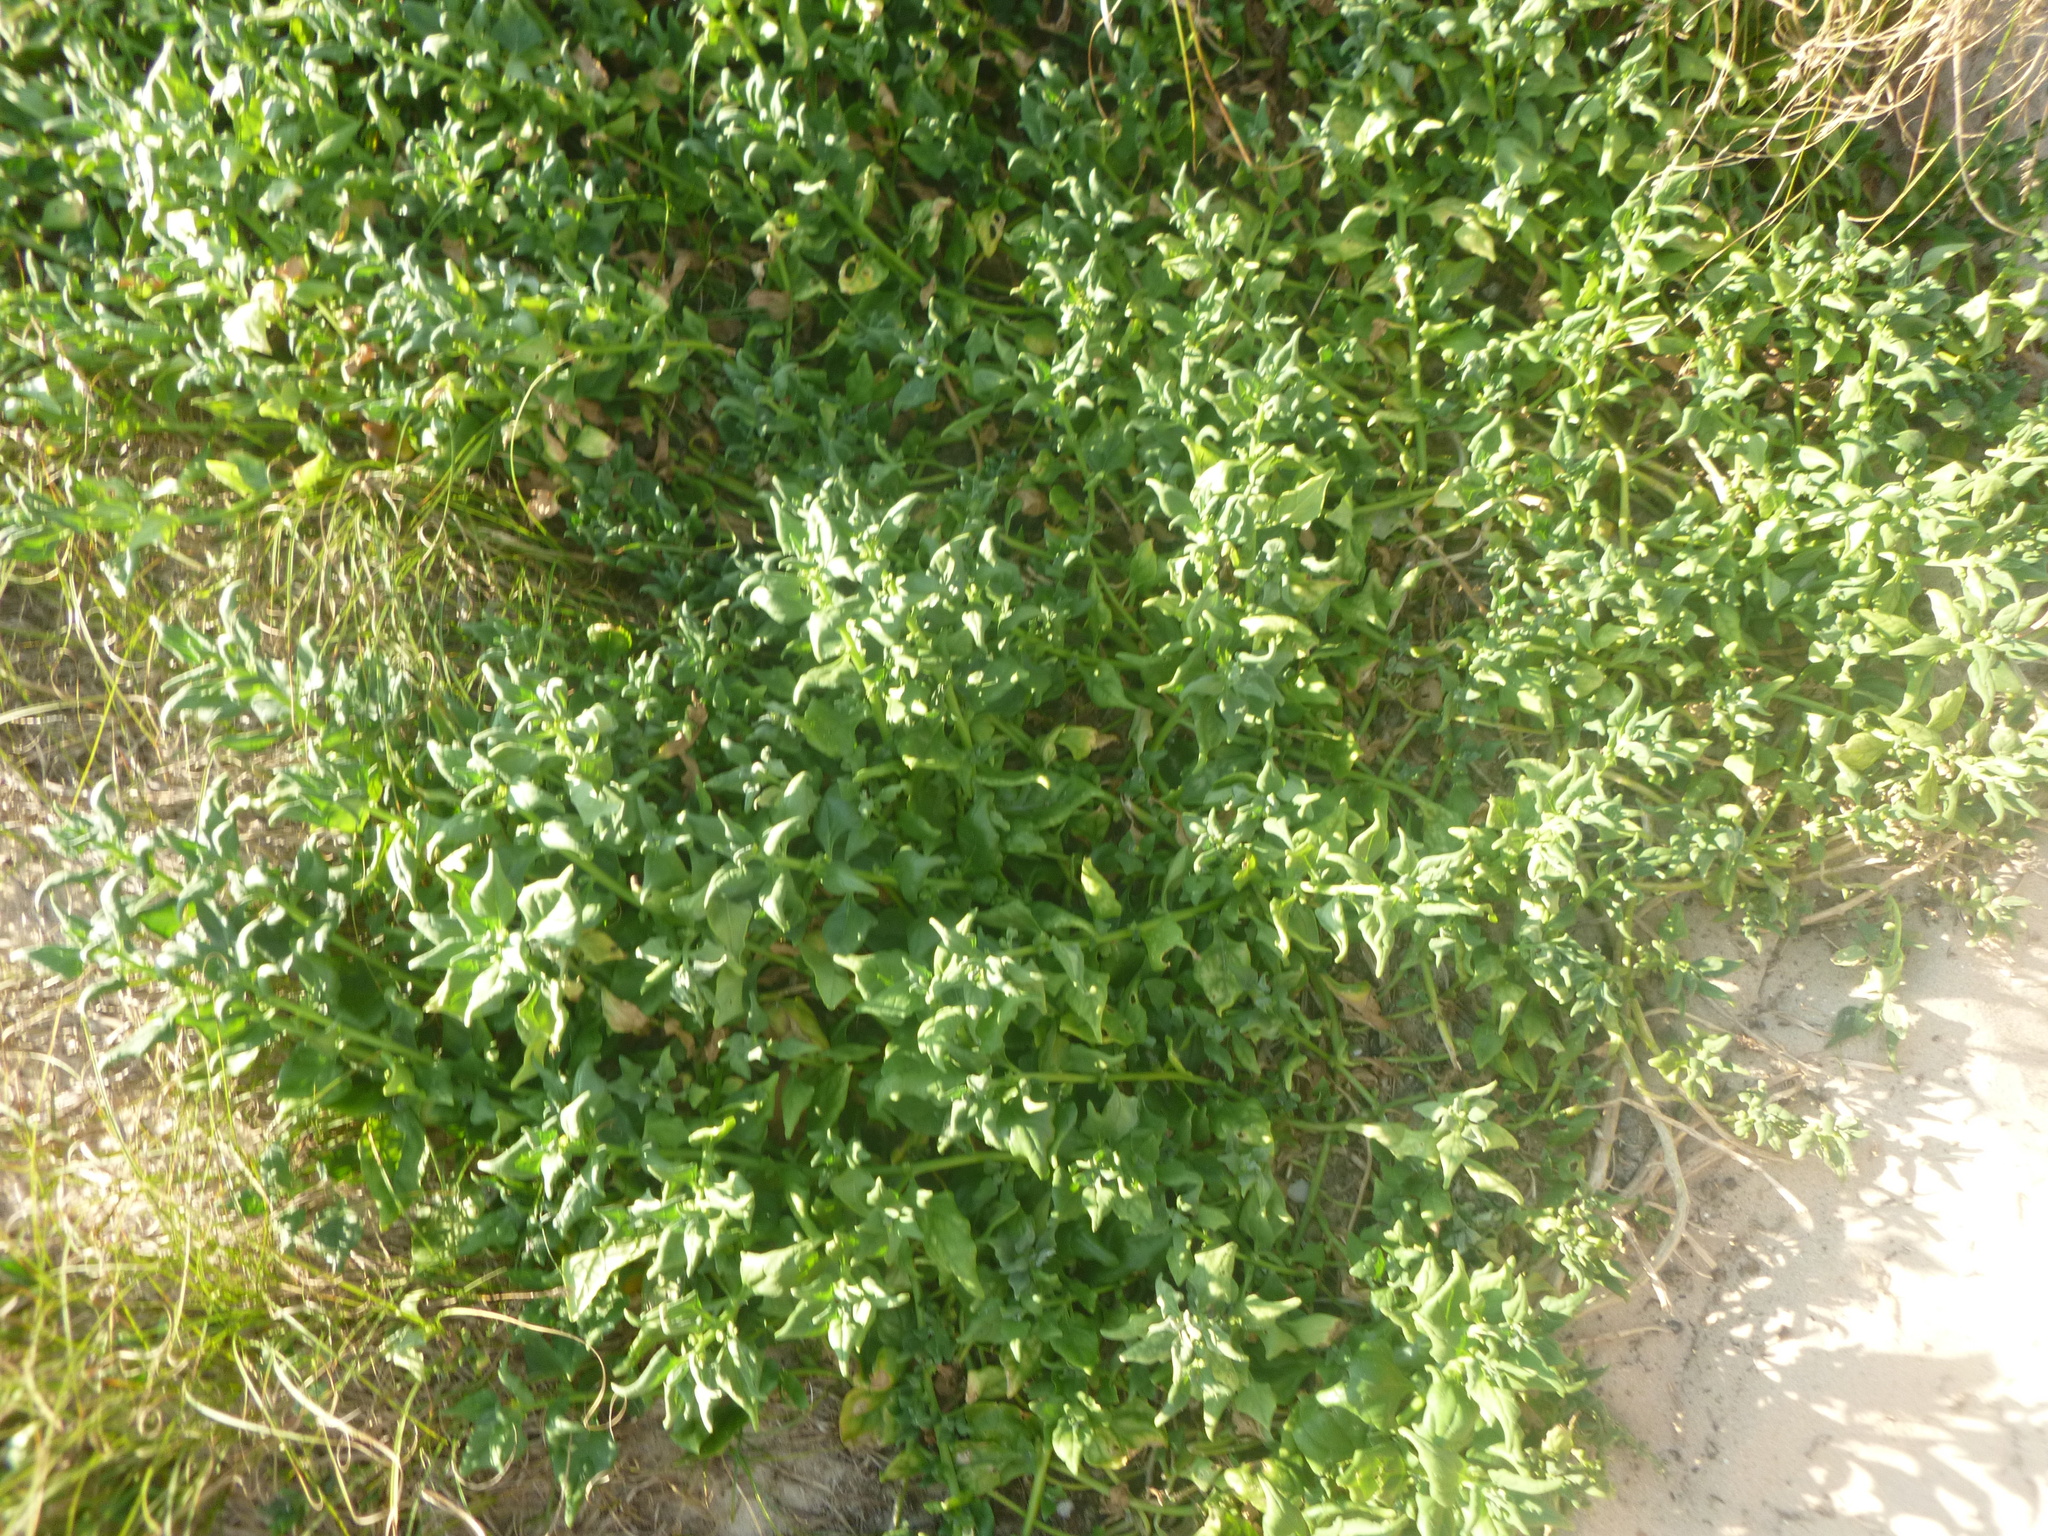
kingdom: Plantae
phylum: Tracheophyta
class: Magnoliopsida
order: Caryophyllales
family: Aizoaceae
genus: Tetragonia
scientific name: Tetragonia tetragonoides
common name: New zealand-spinach
